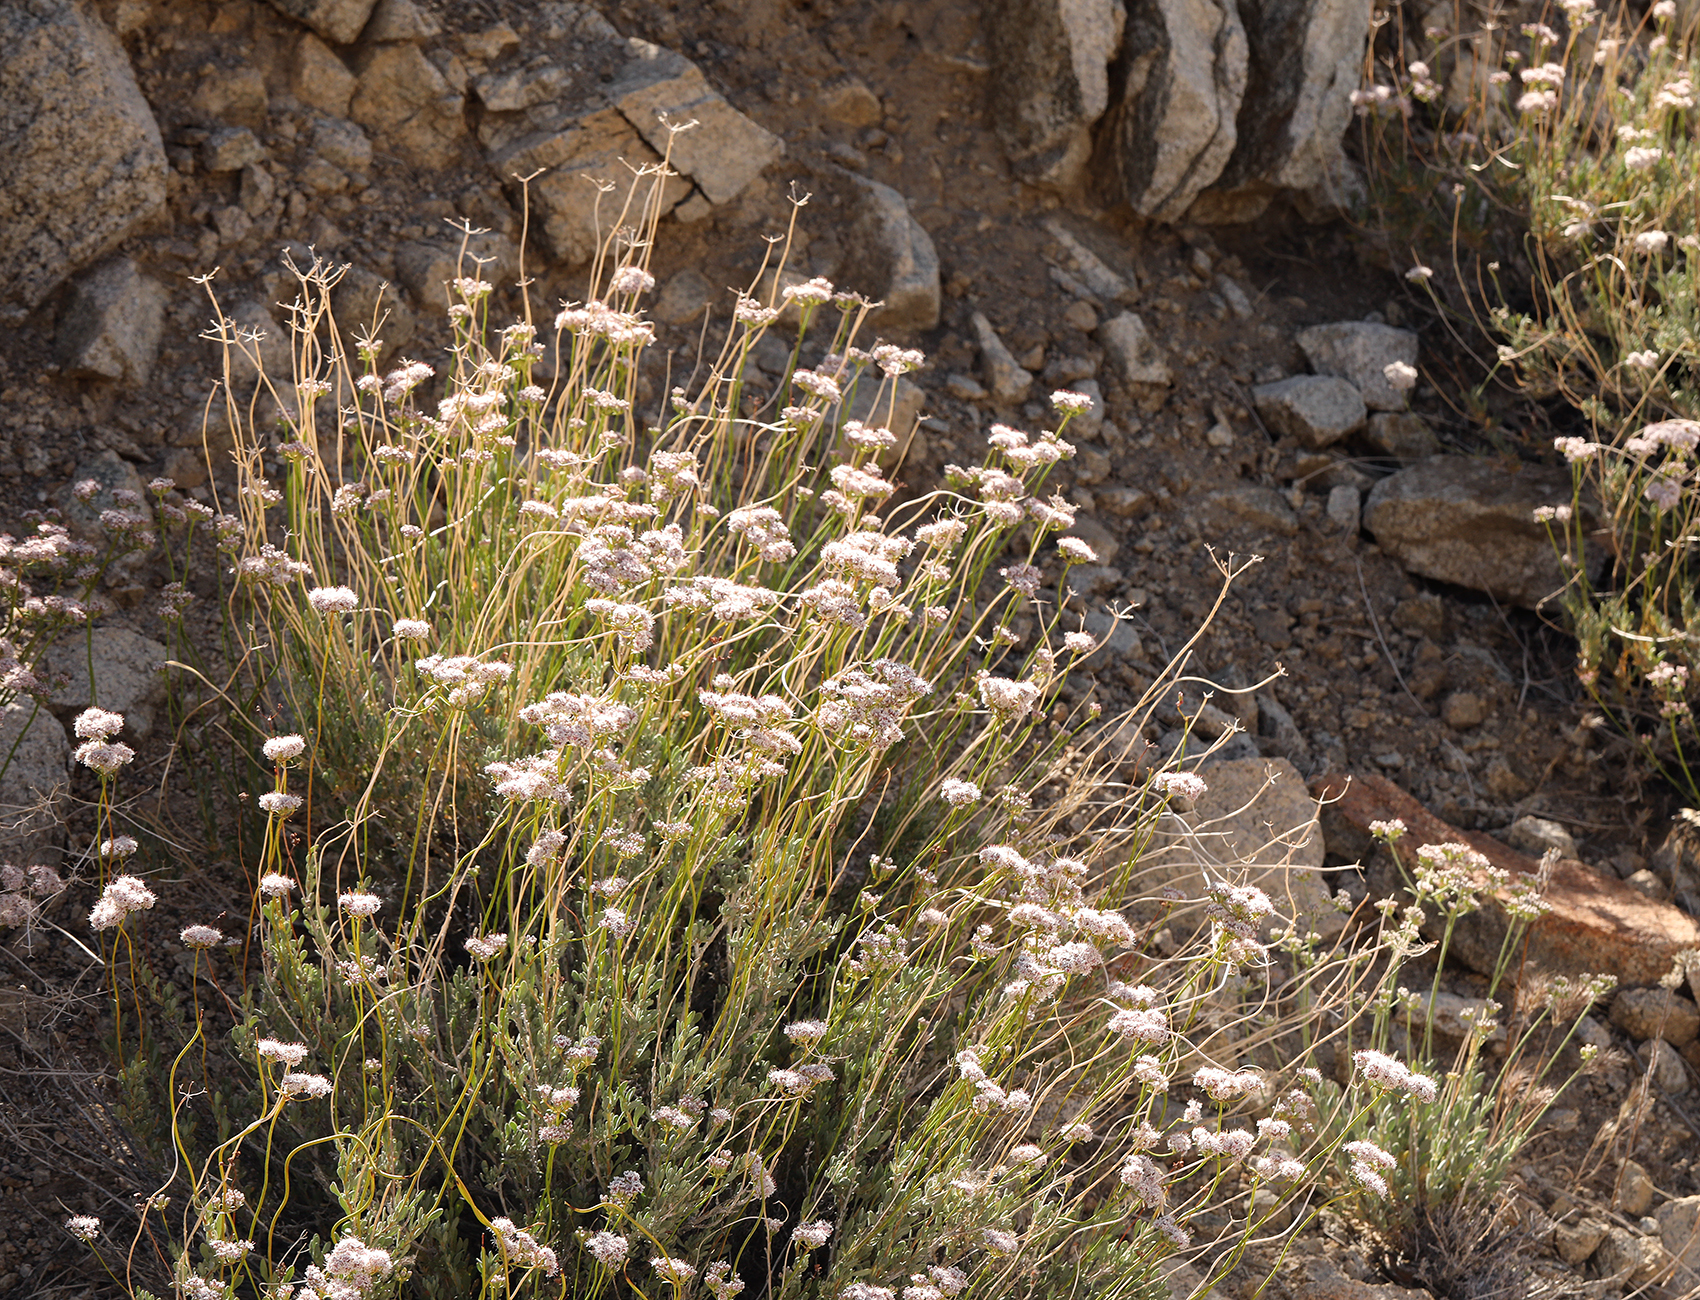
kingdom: Plantae
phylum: Tracheophyta
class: Magnoliopsida
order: Caryophyllales
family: Polygonaceae
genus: Eriogonum
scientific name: Eriogonum fasciculatum
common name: California wild buckwheat
